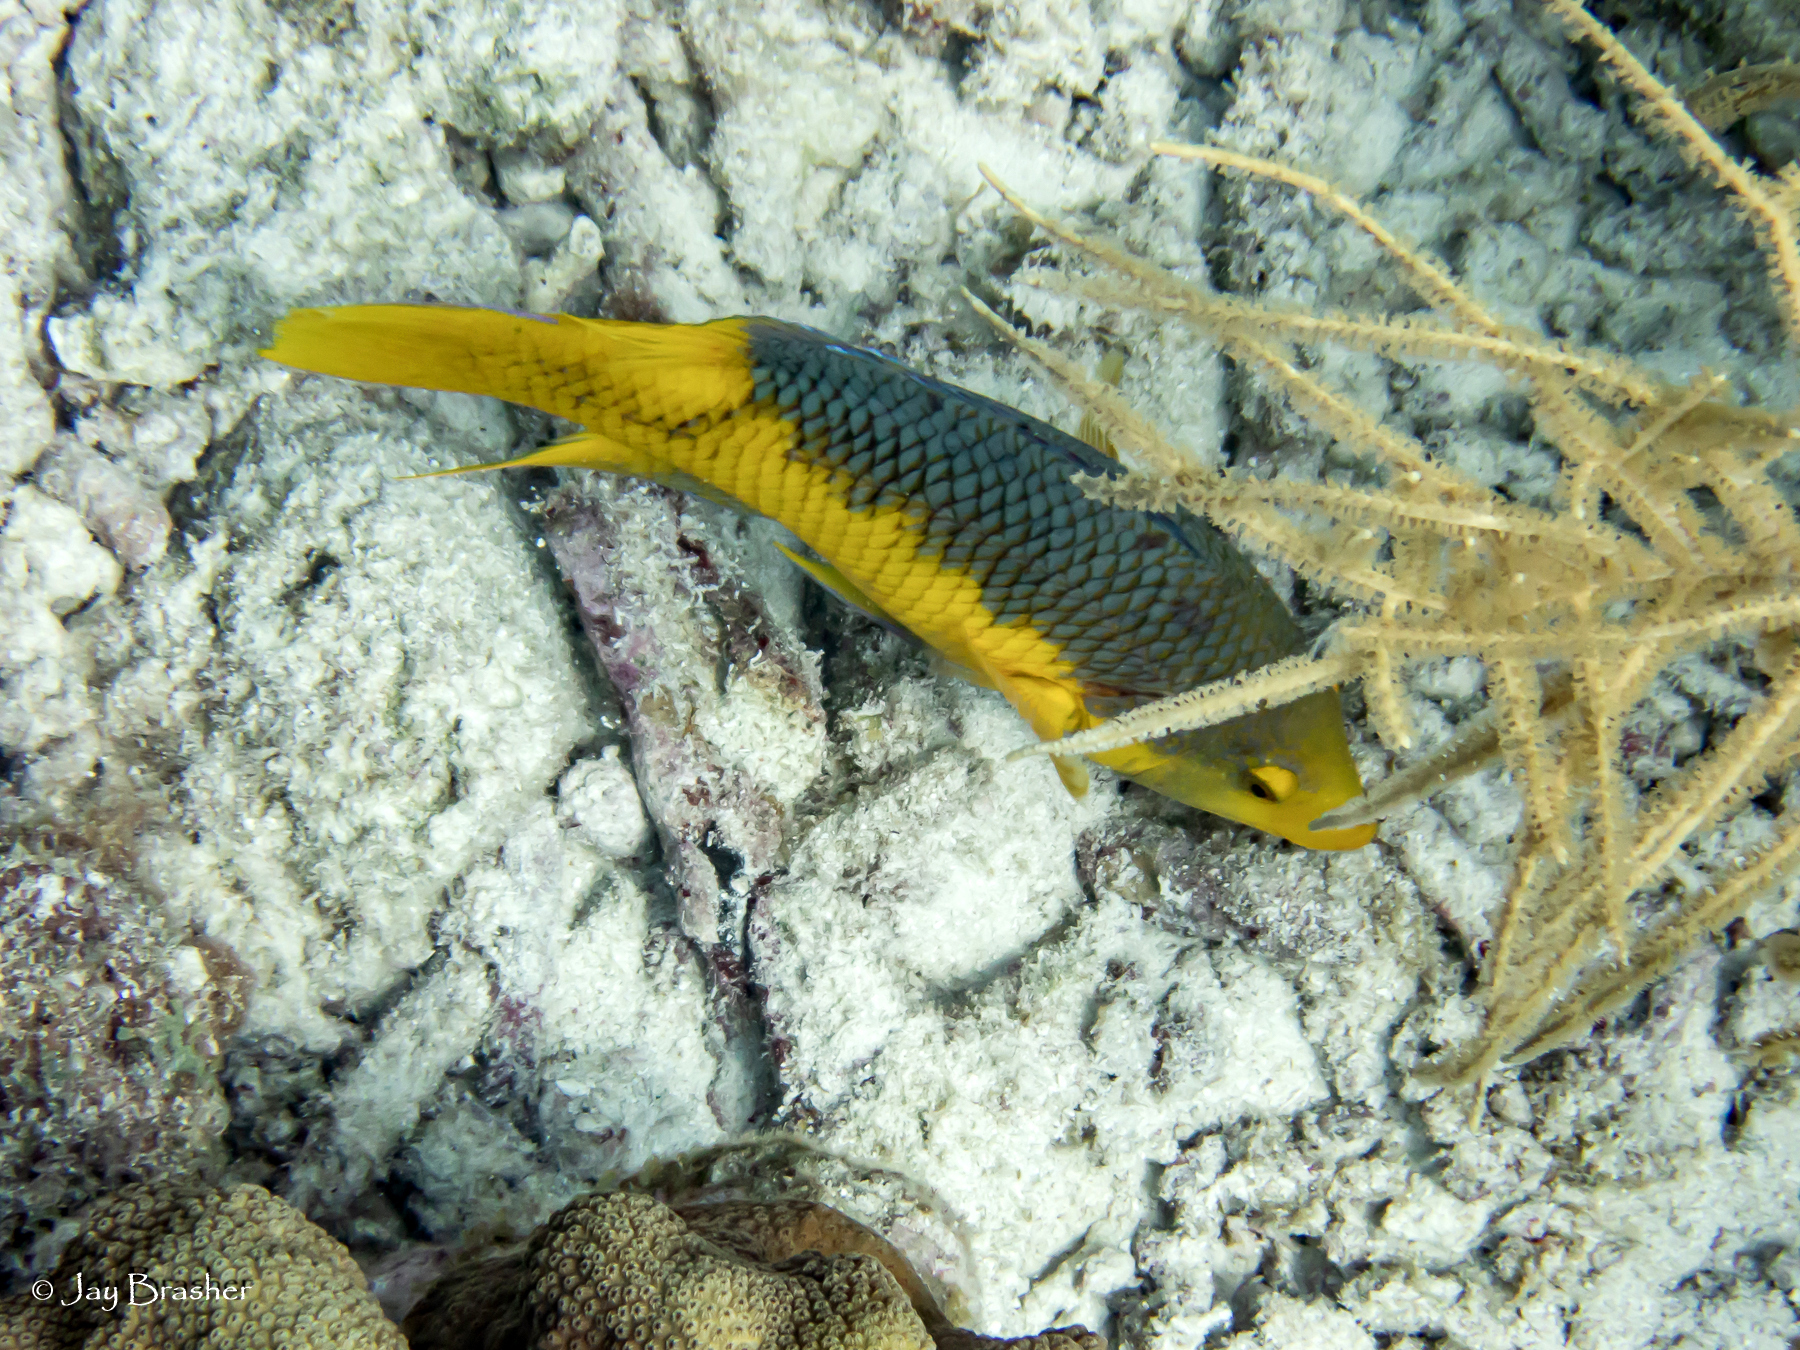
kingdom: Animalia
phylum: Chordata
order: Perciformes
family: Labridae
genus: Bodianus
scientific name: Bodianus rufus
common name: Spanish hogfish
